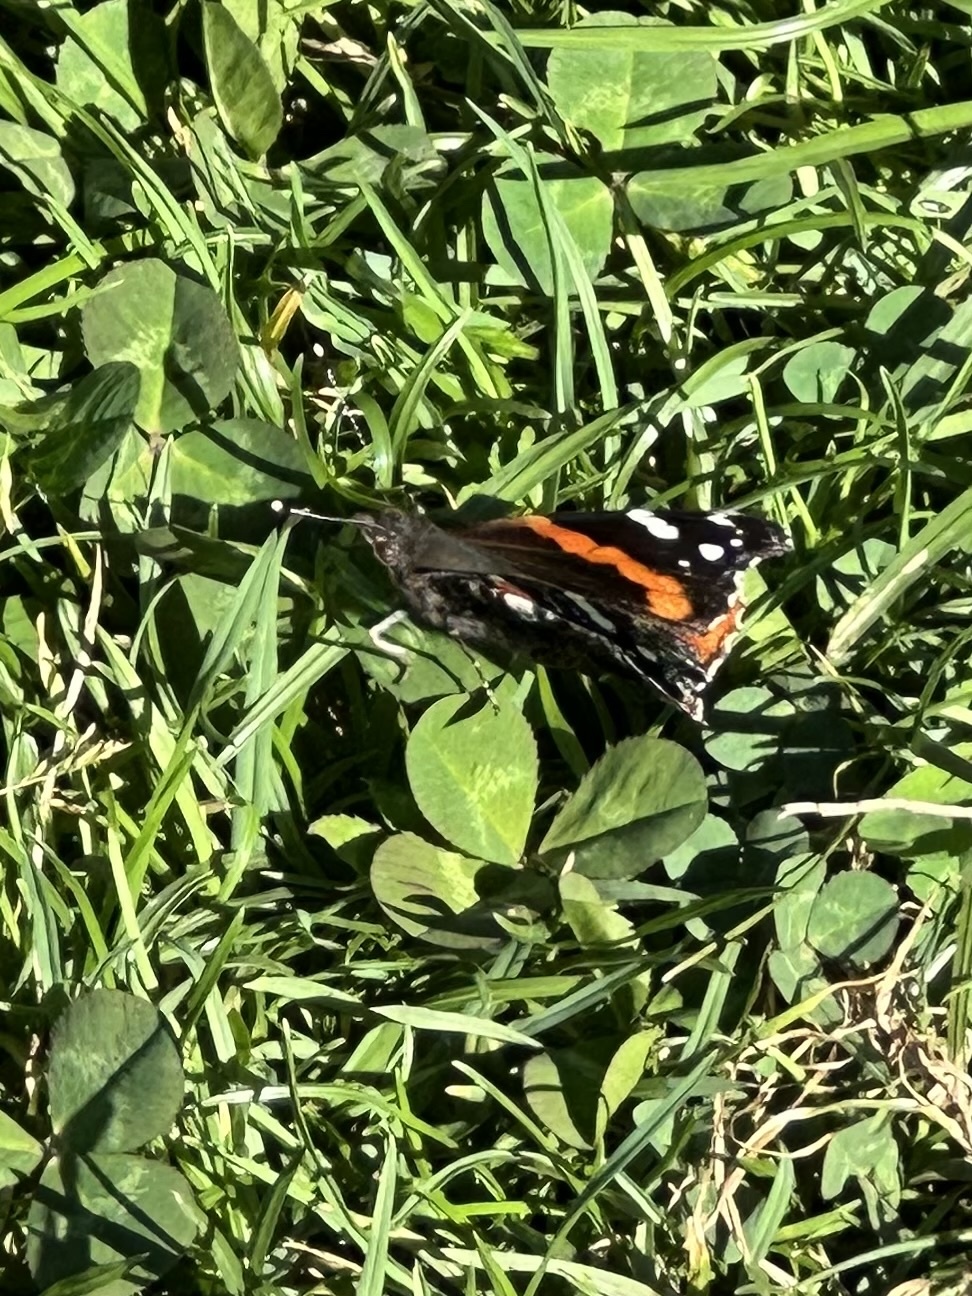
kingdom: Animalia
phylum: Arthropoda
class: Insecta
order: Lepidoptera
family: Nymphalidae
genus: Vanessa
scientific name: Vanessa atalanta
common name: Red admiral
